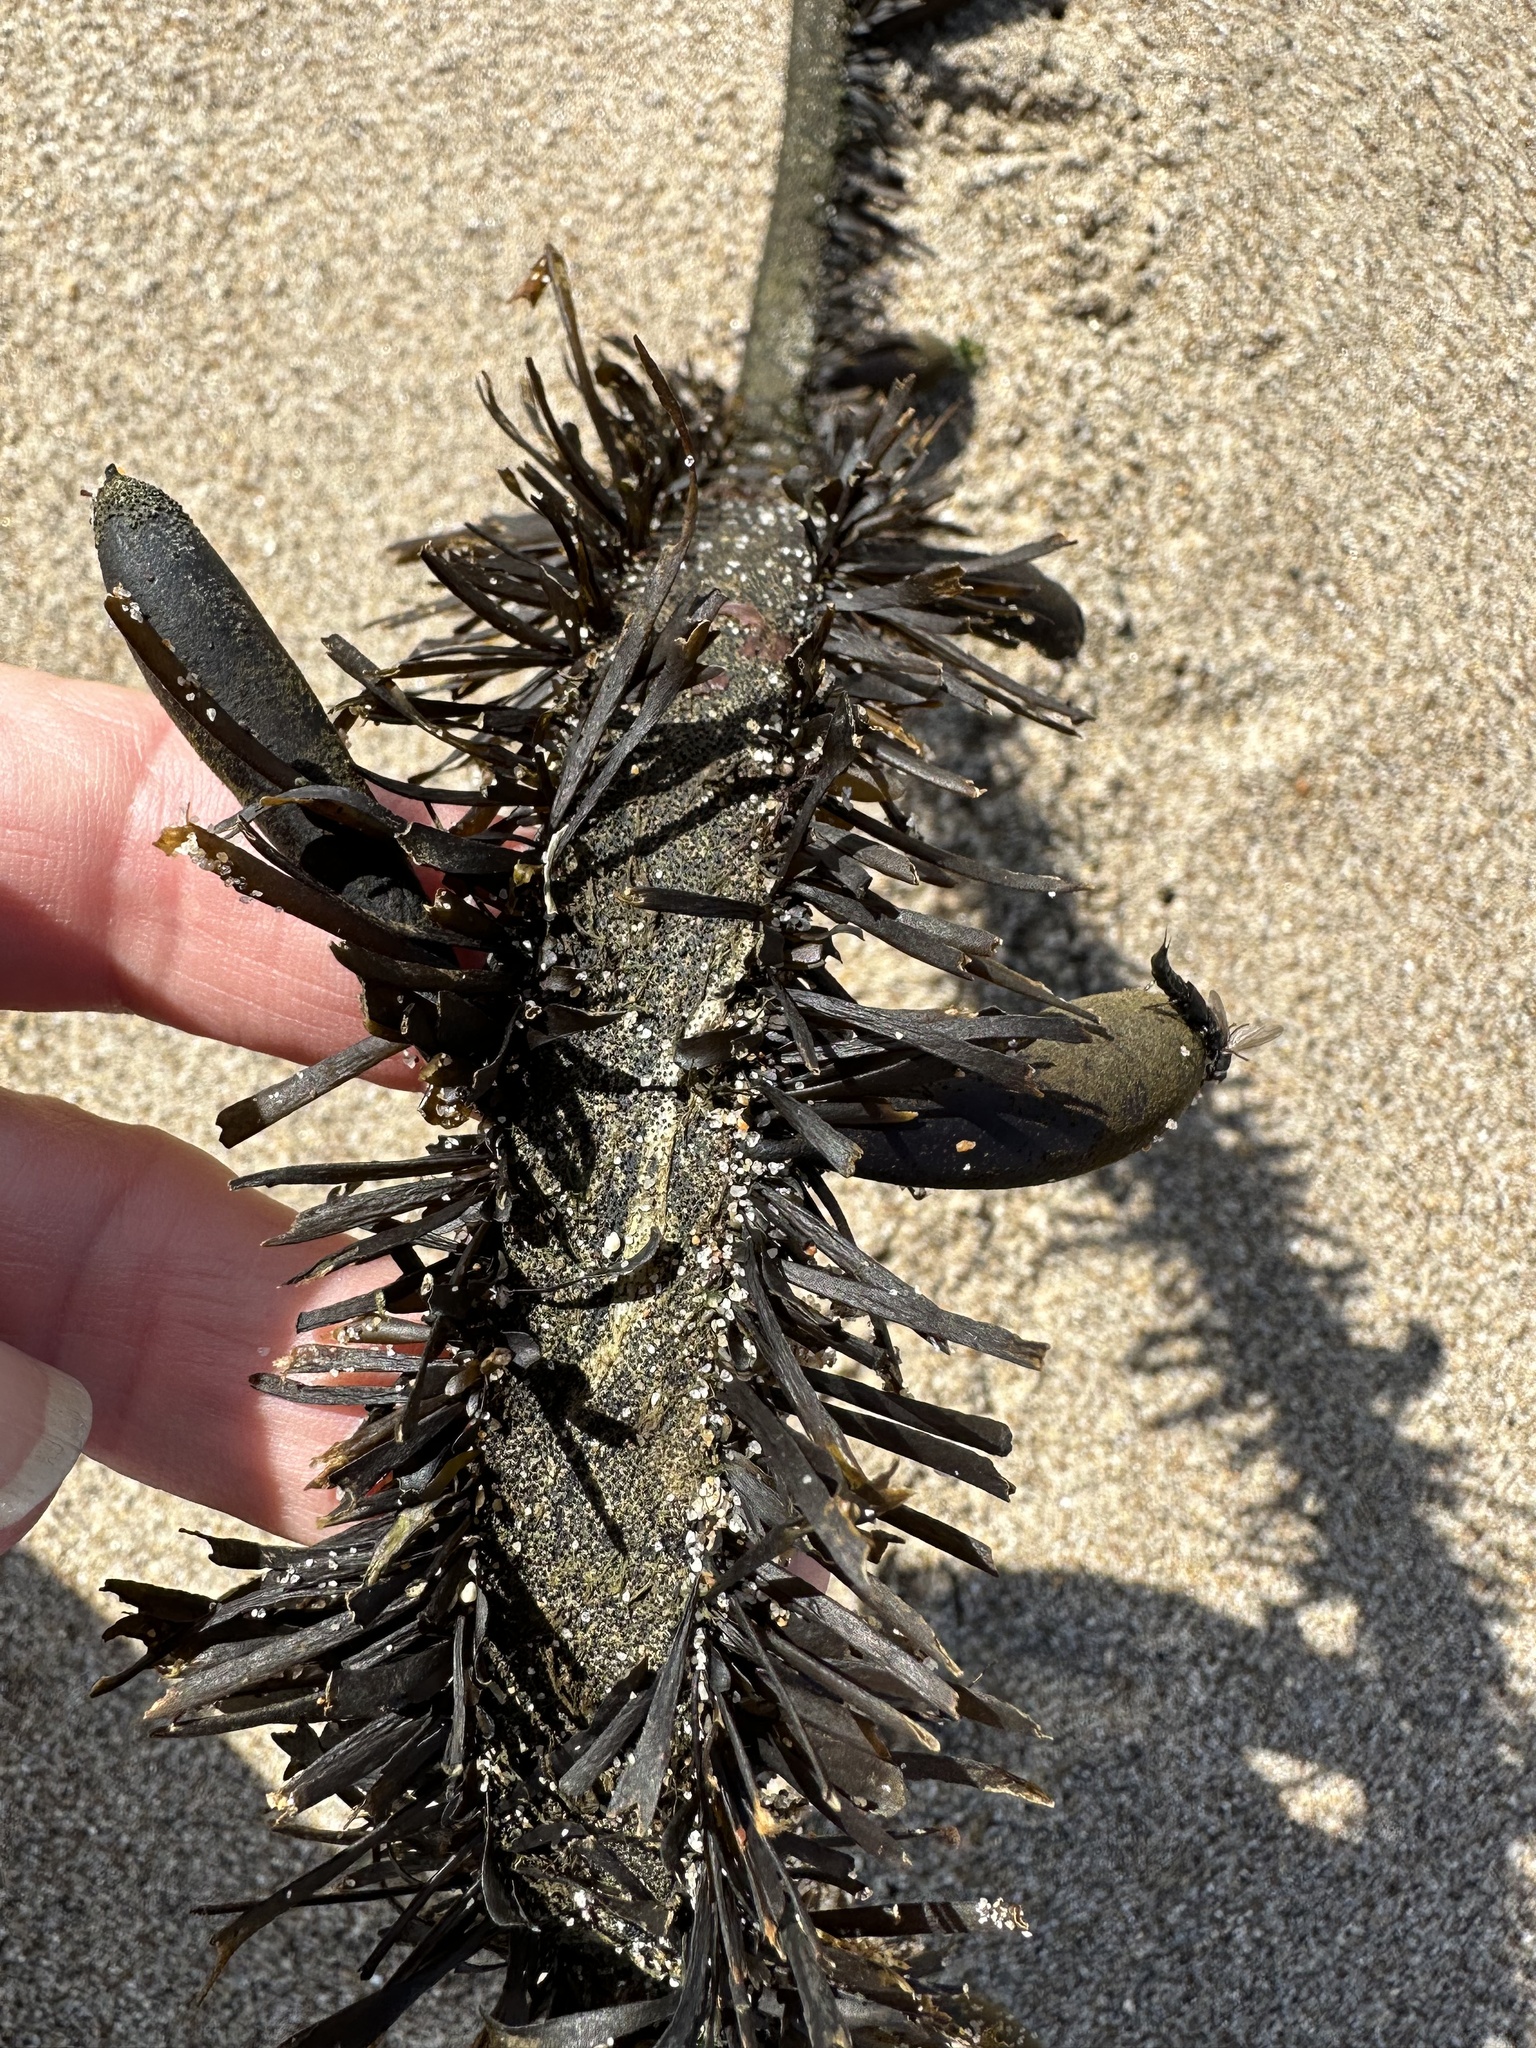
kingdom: Chromista
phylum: Ochrophyta
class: Phaeophyceae
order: Laminariales
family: Lessoniaceae
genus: Egregia
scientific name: Egregia menziesii
